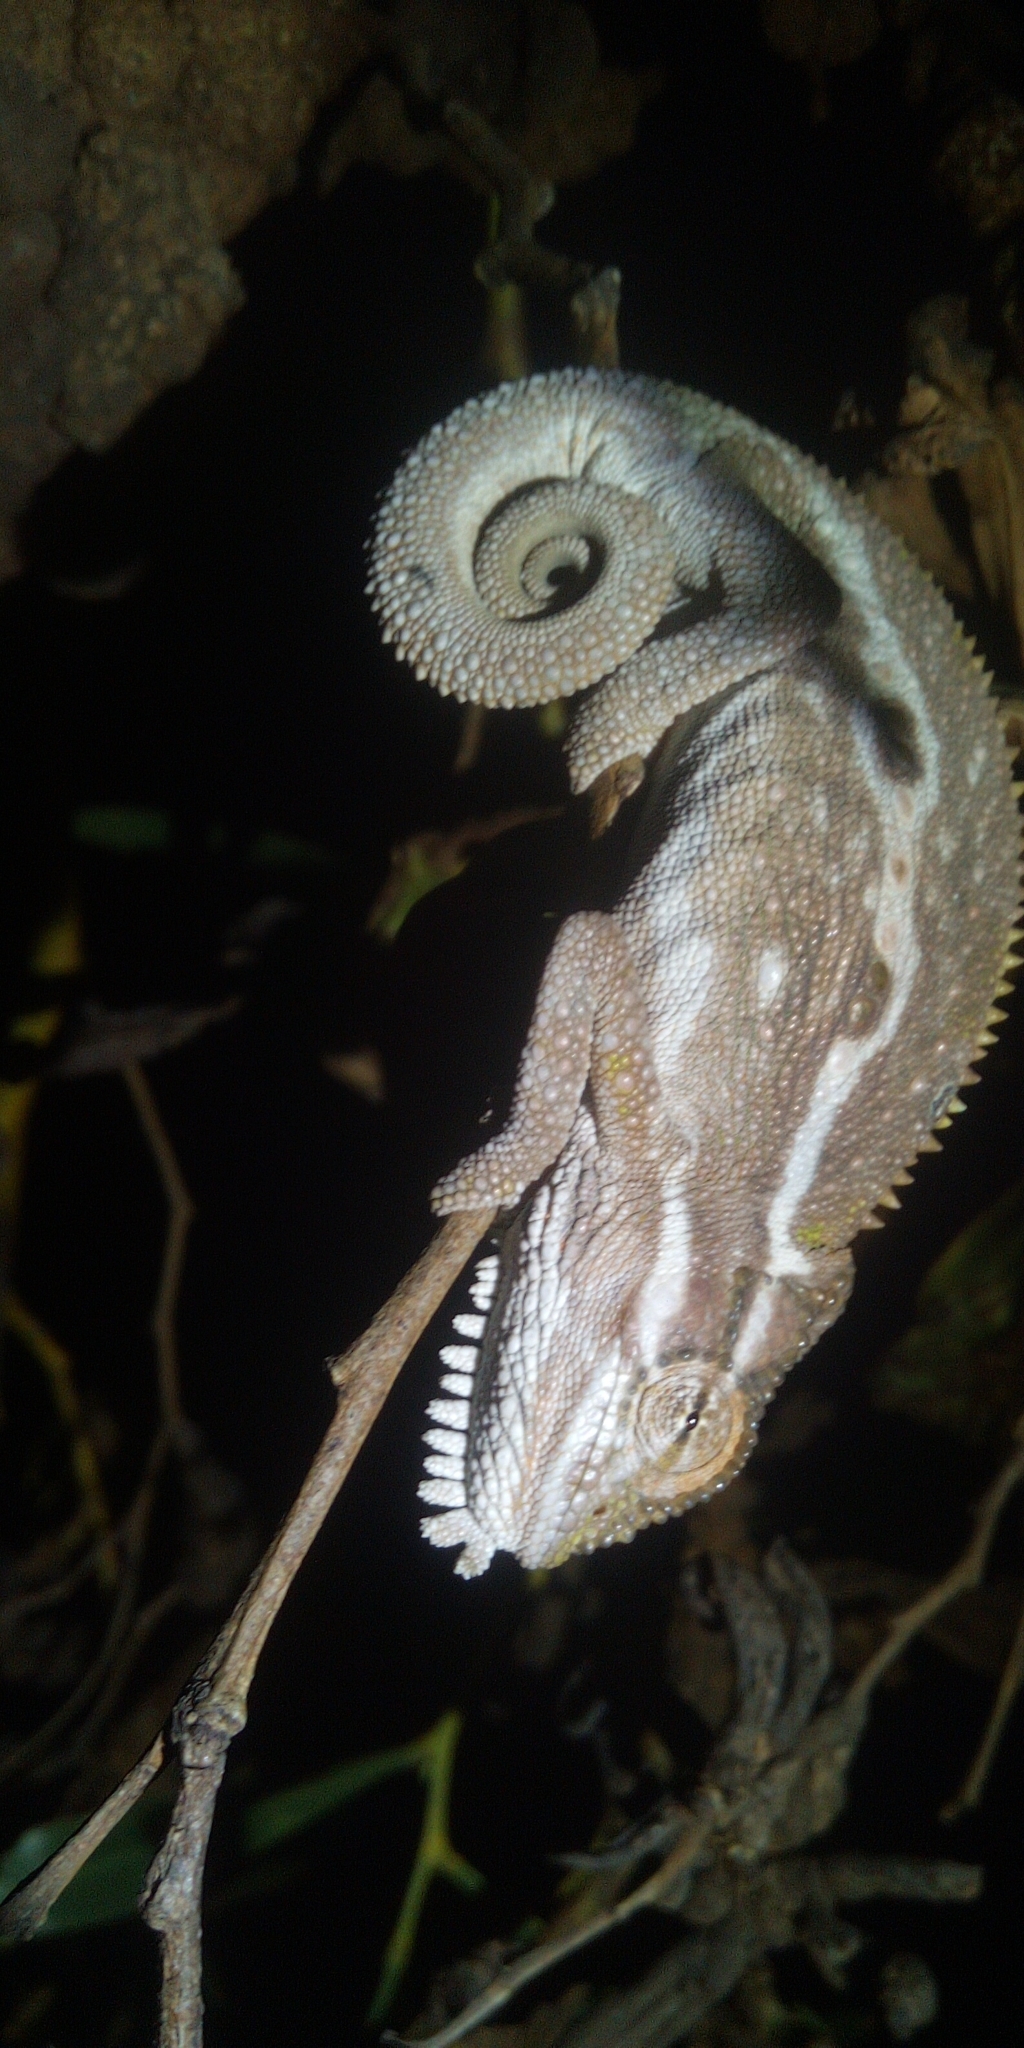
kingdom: Animalia
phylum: Chordata
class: Squamata
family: Chamaeleonidae
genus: Bradypodion
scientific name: Bradypodion pumilum
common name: Cape dwarf chameleon
